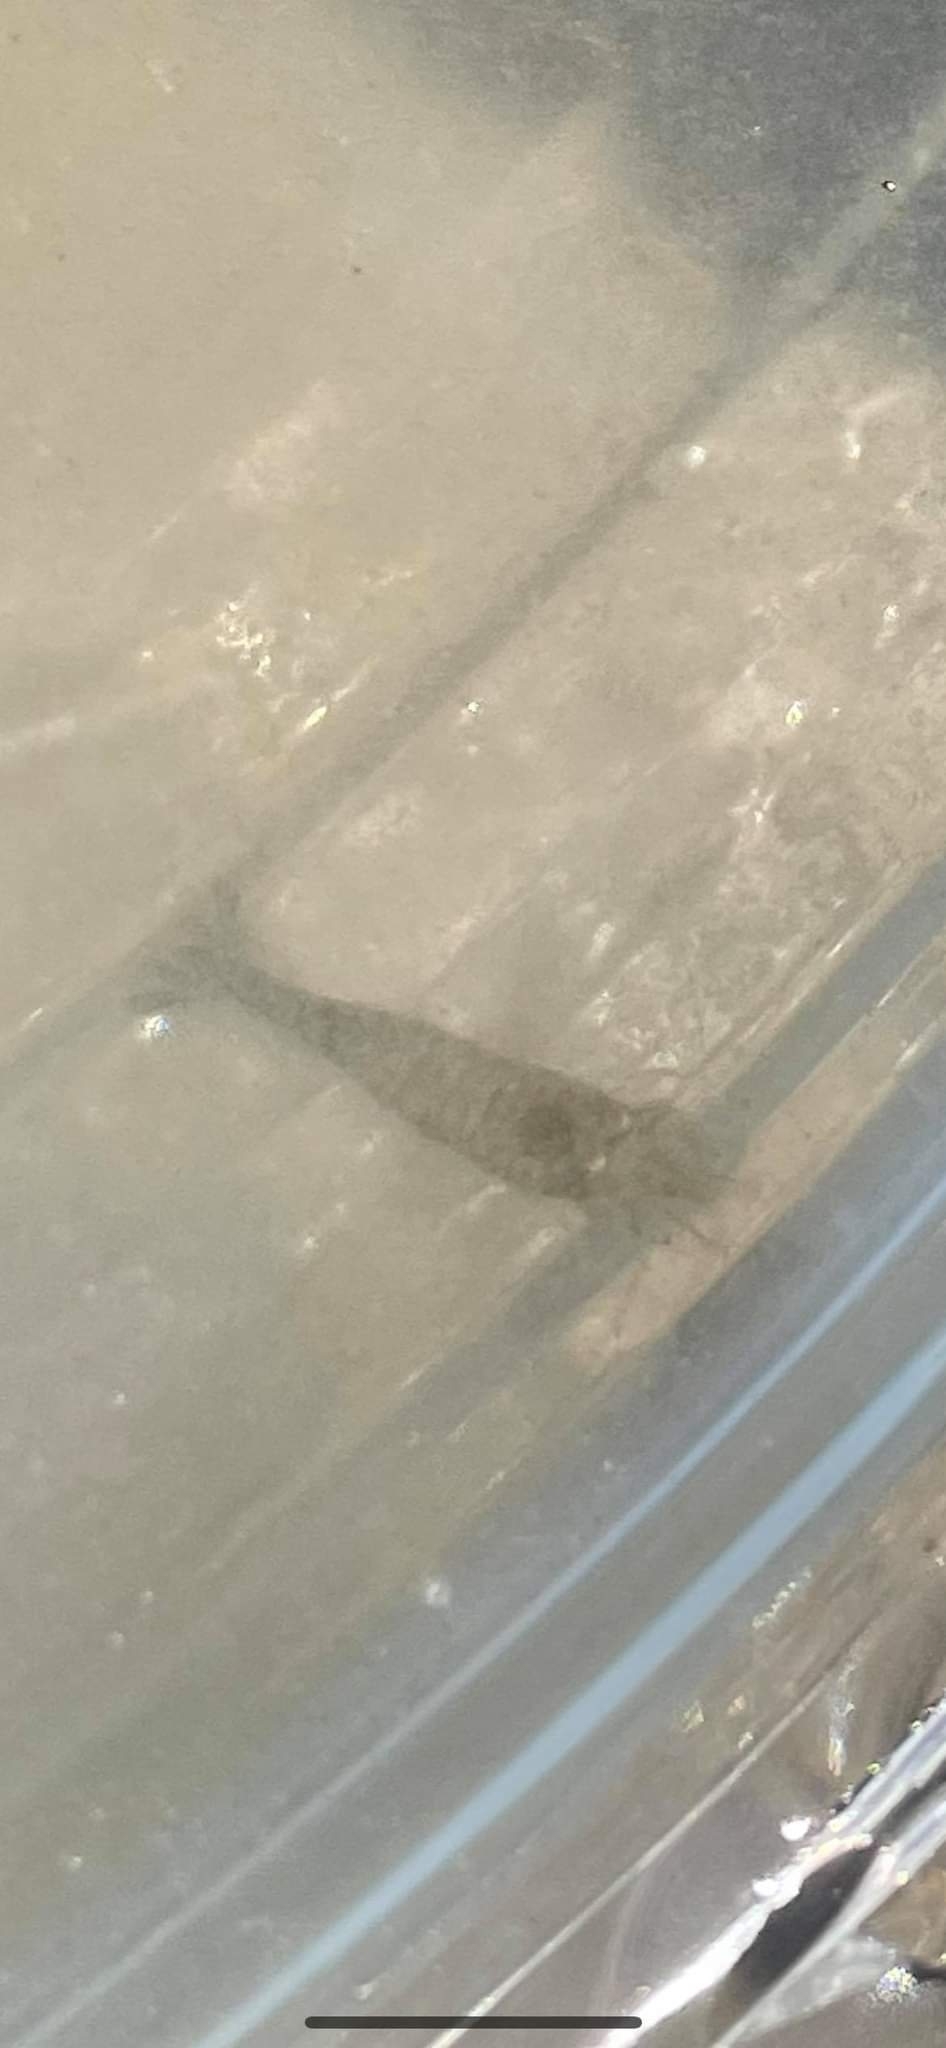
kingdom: Animalia
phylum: Arthropoda
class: Malacostraca
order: Decapoda
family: Crangonidae
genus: Crangon
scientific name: Crangon septemspinosa
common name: Bail shrimp
